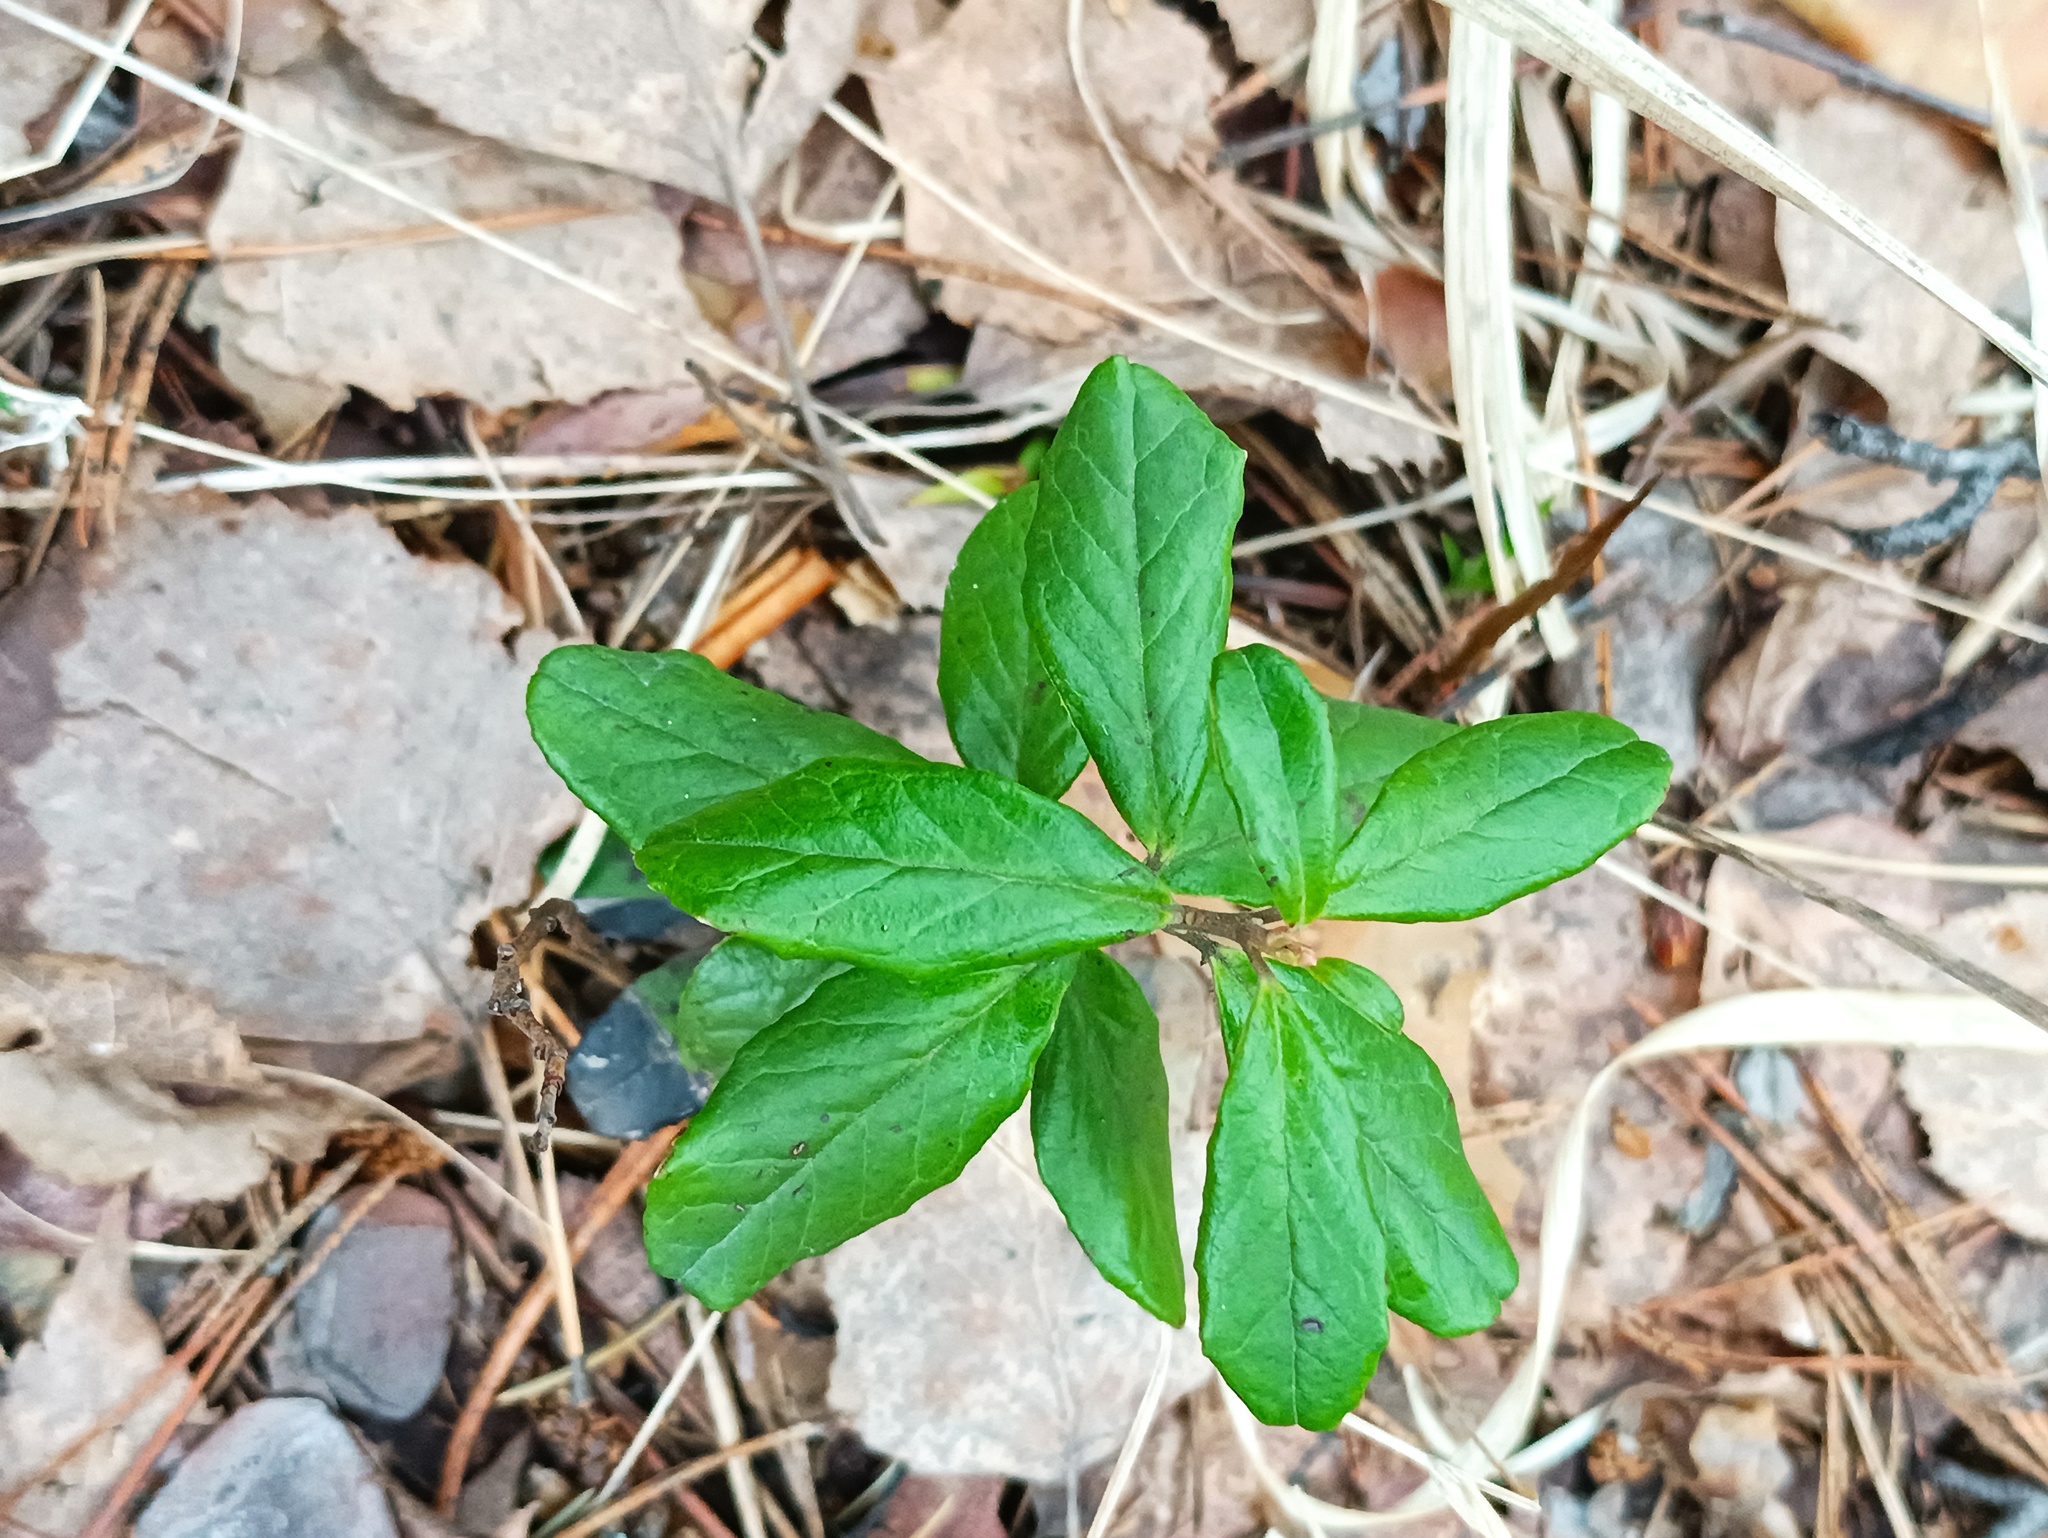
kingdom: Plantae
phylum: Tracheophyta
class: Magnoliopsida
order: Ericales
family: Ericaceae
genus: Vaccinium
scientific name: Vaccinium vitis-idaea
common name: Cowberry
